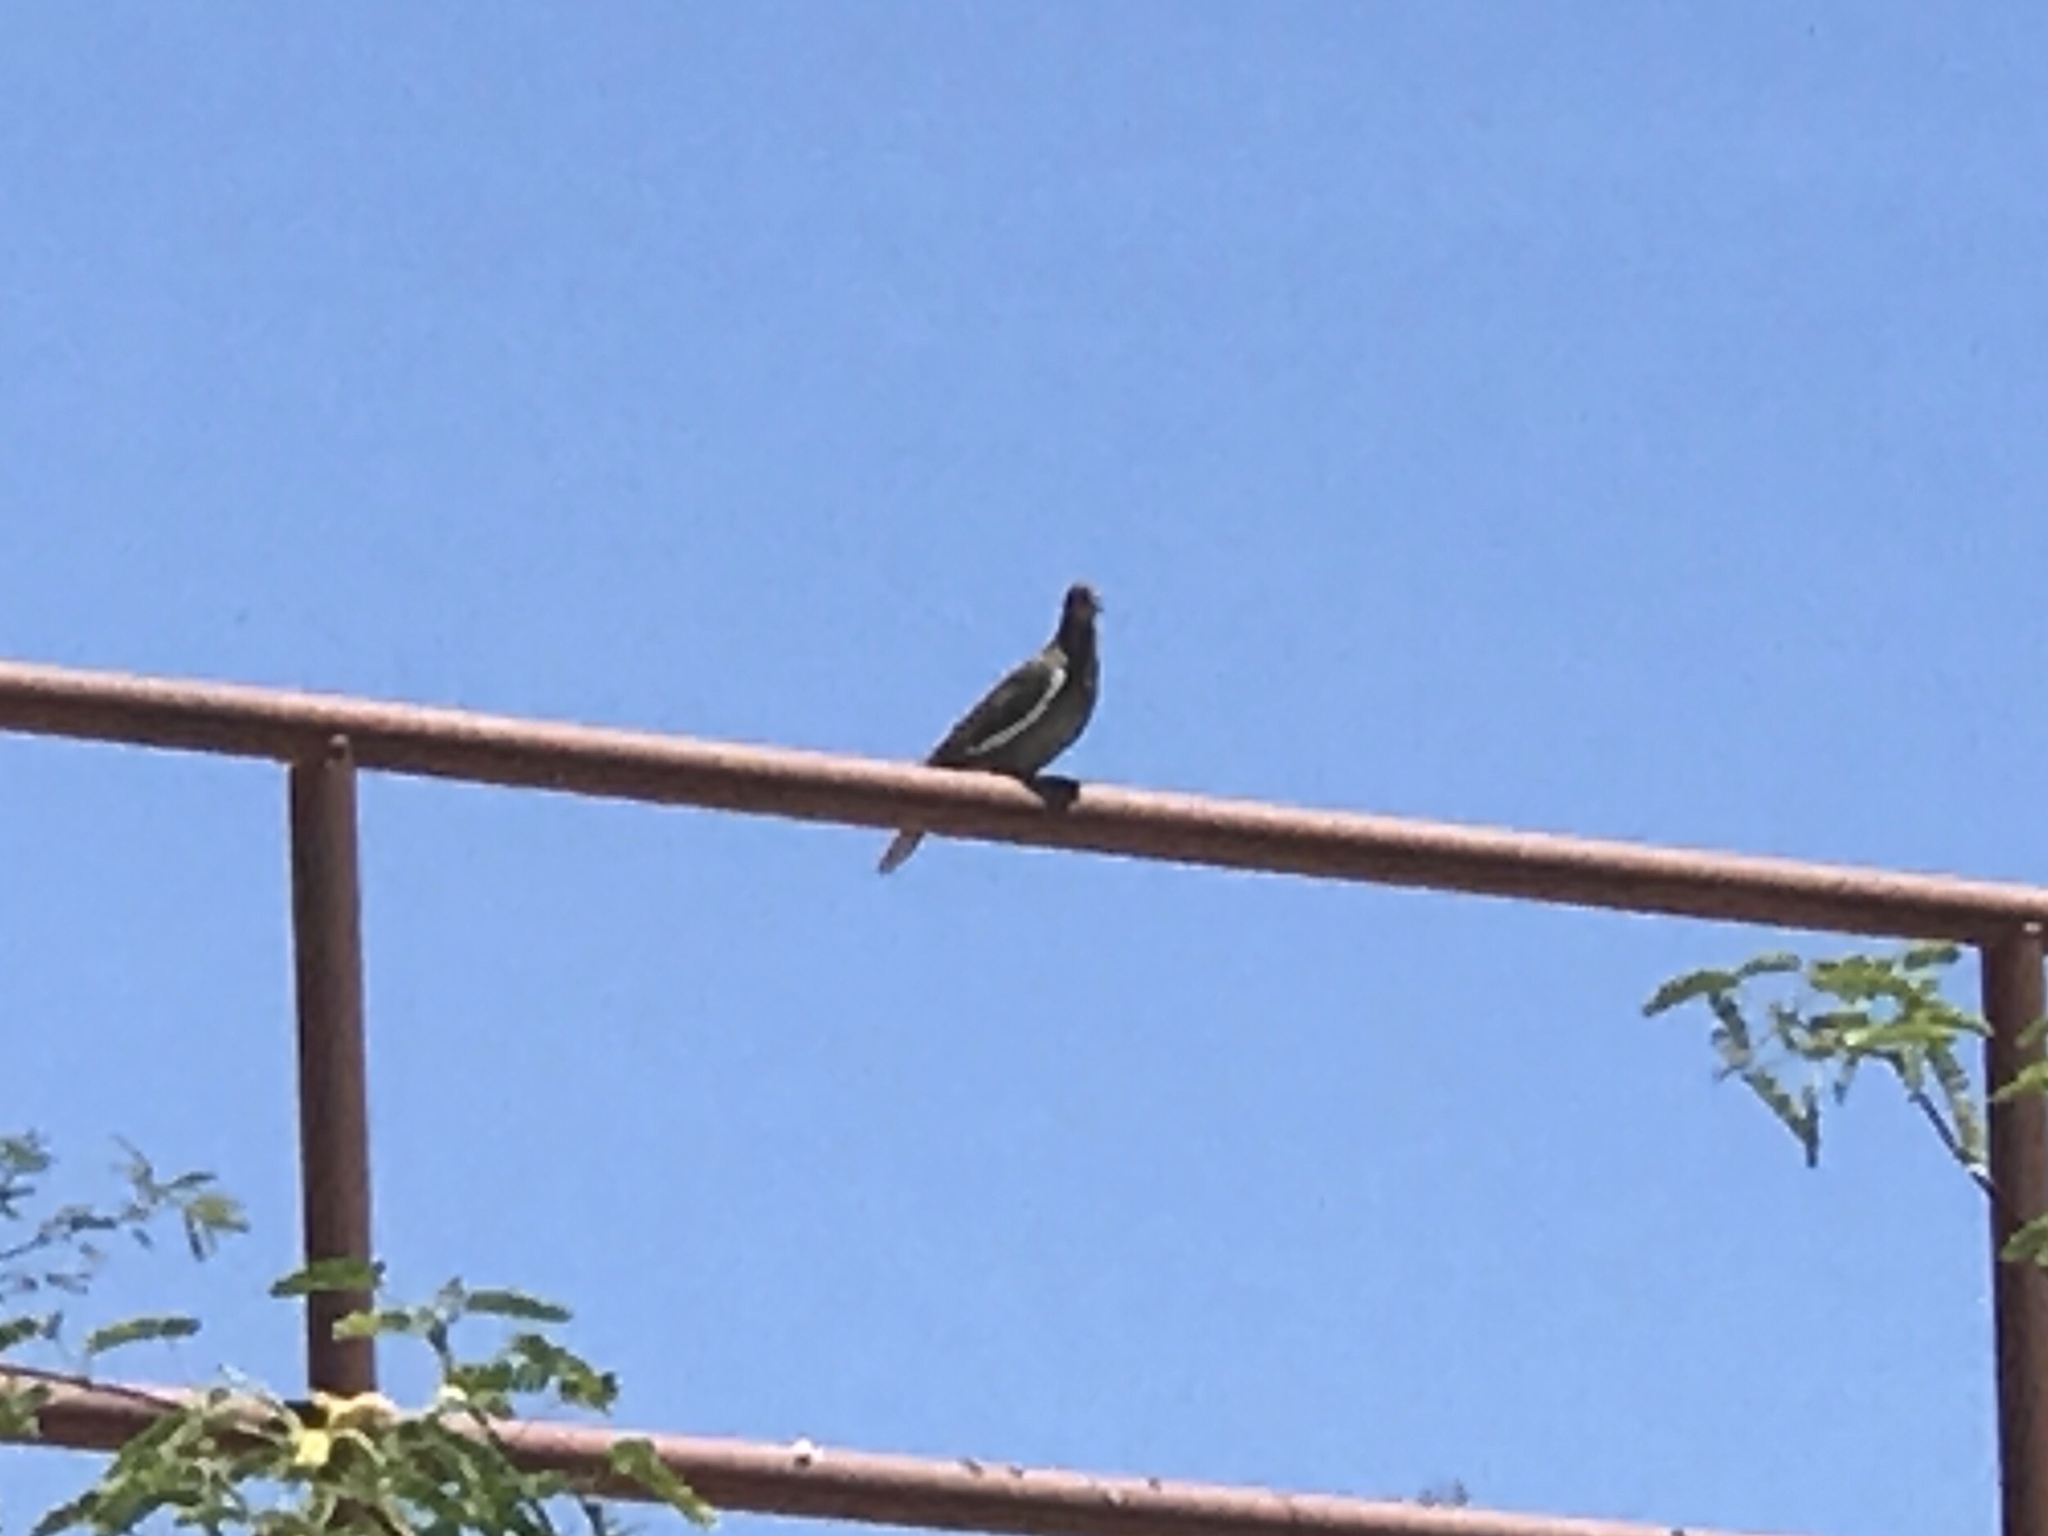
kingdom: Animalia
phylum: Chordata
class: Aves
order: Columbiformes
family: Columbidae
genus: Zenaida
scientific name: Zenaida asiatica
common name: White-winged dove
